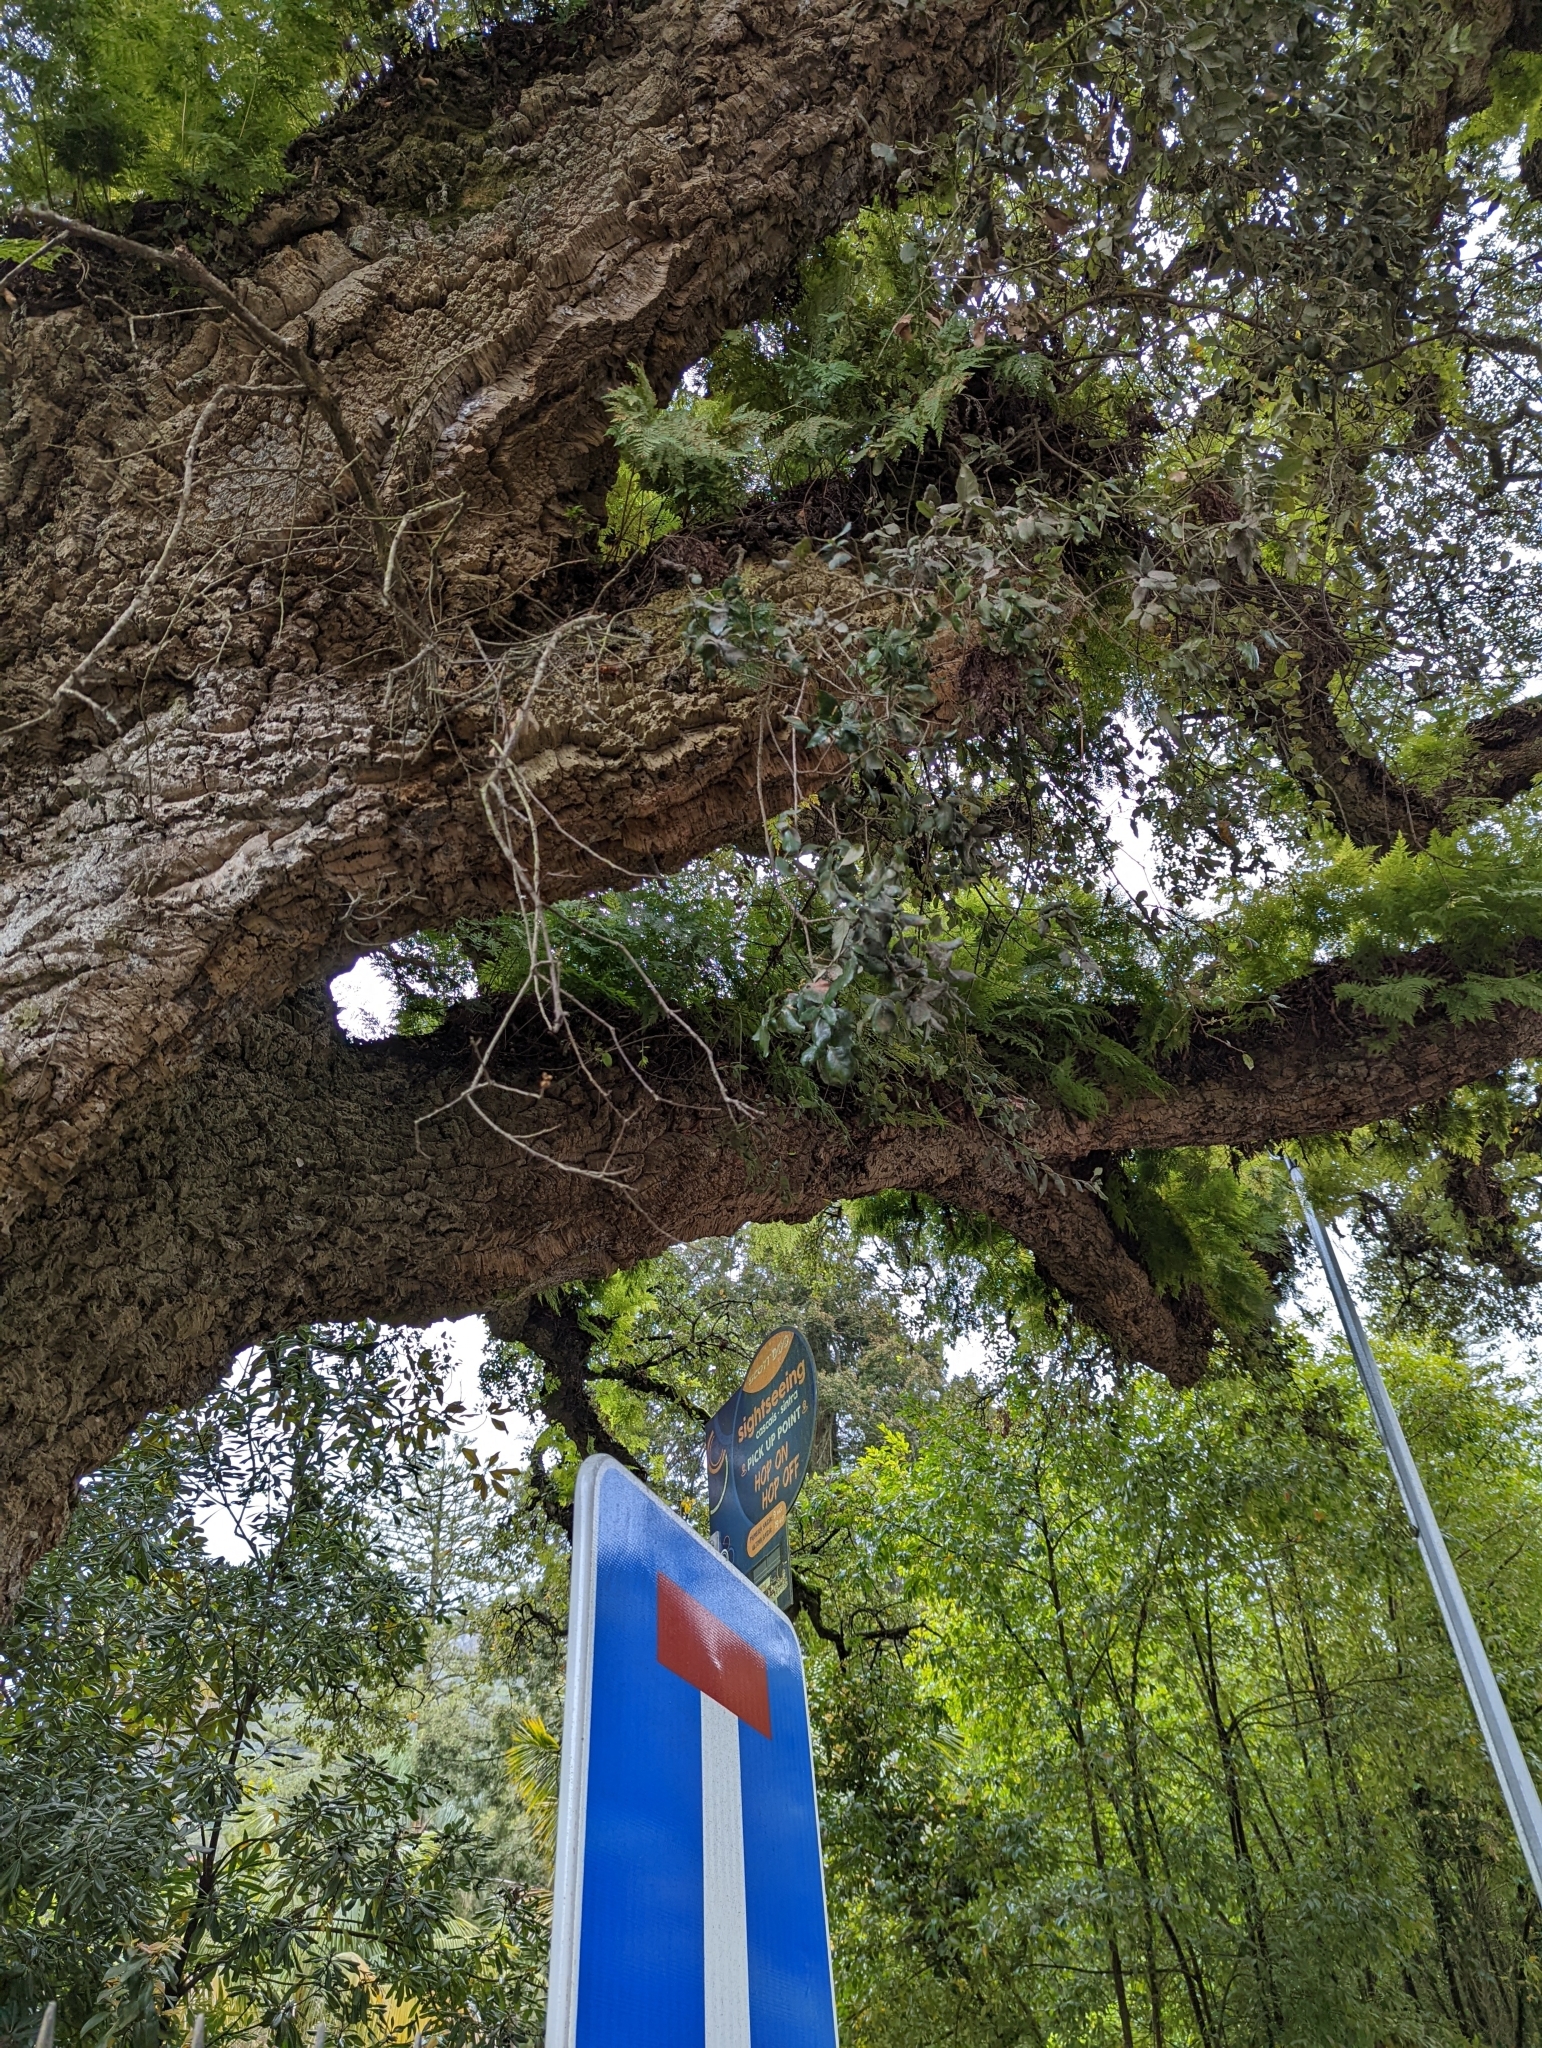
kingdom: Plantae
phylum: Tracheophyta
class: Magnoliopsida
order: Fagales
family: Fagaceae
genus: Quercus
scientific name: Quercus suber
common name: Cork oak
